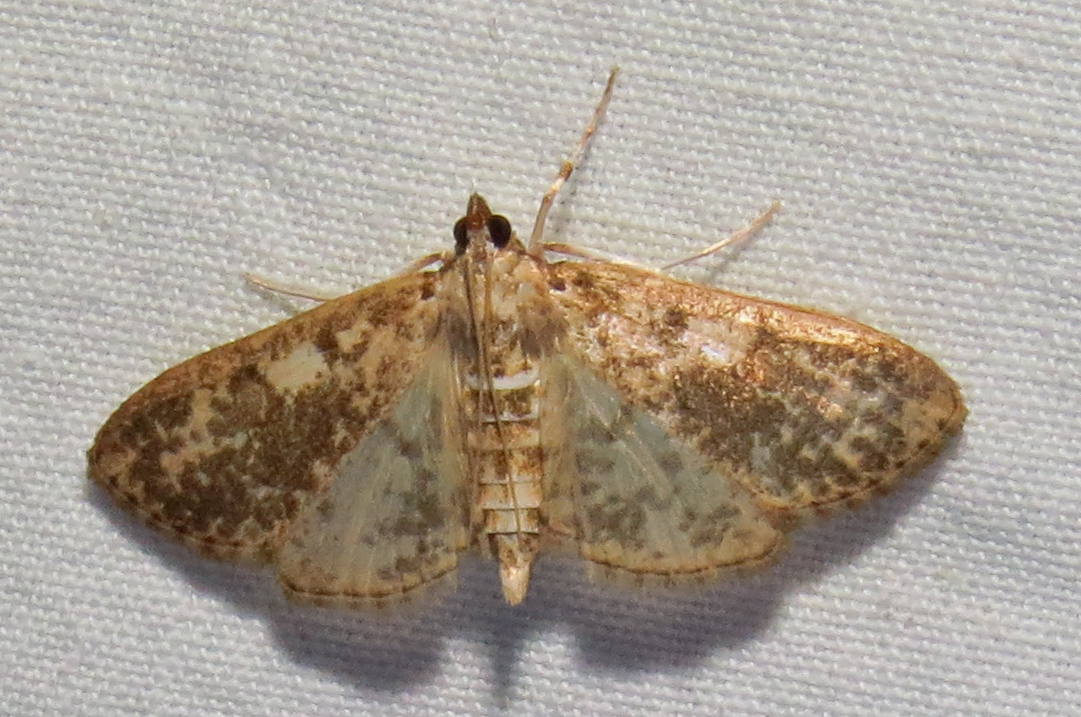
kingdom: Animalia
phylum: Arthropoda
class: Insecta
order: Lepidoptera
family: Crambidae
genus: Palpita
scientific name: Palpita freemanalis
